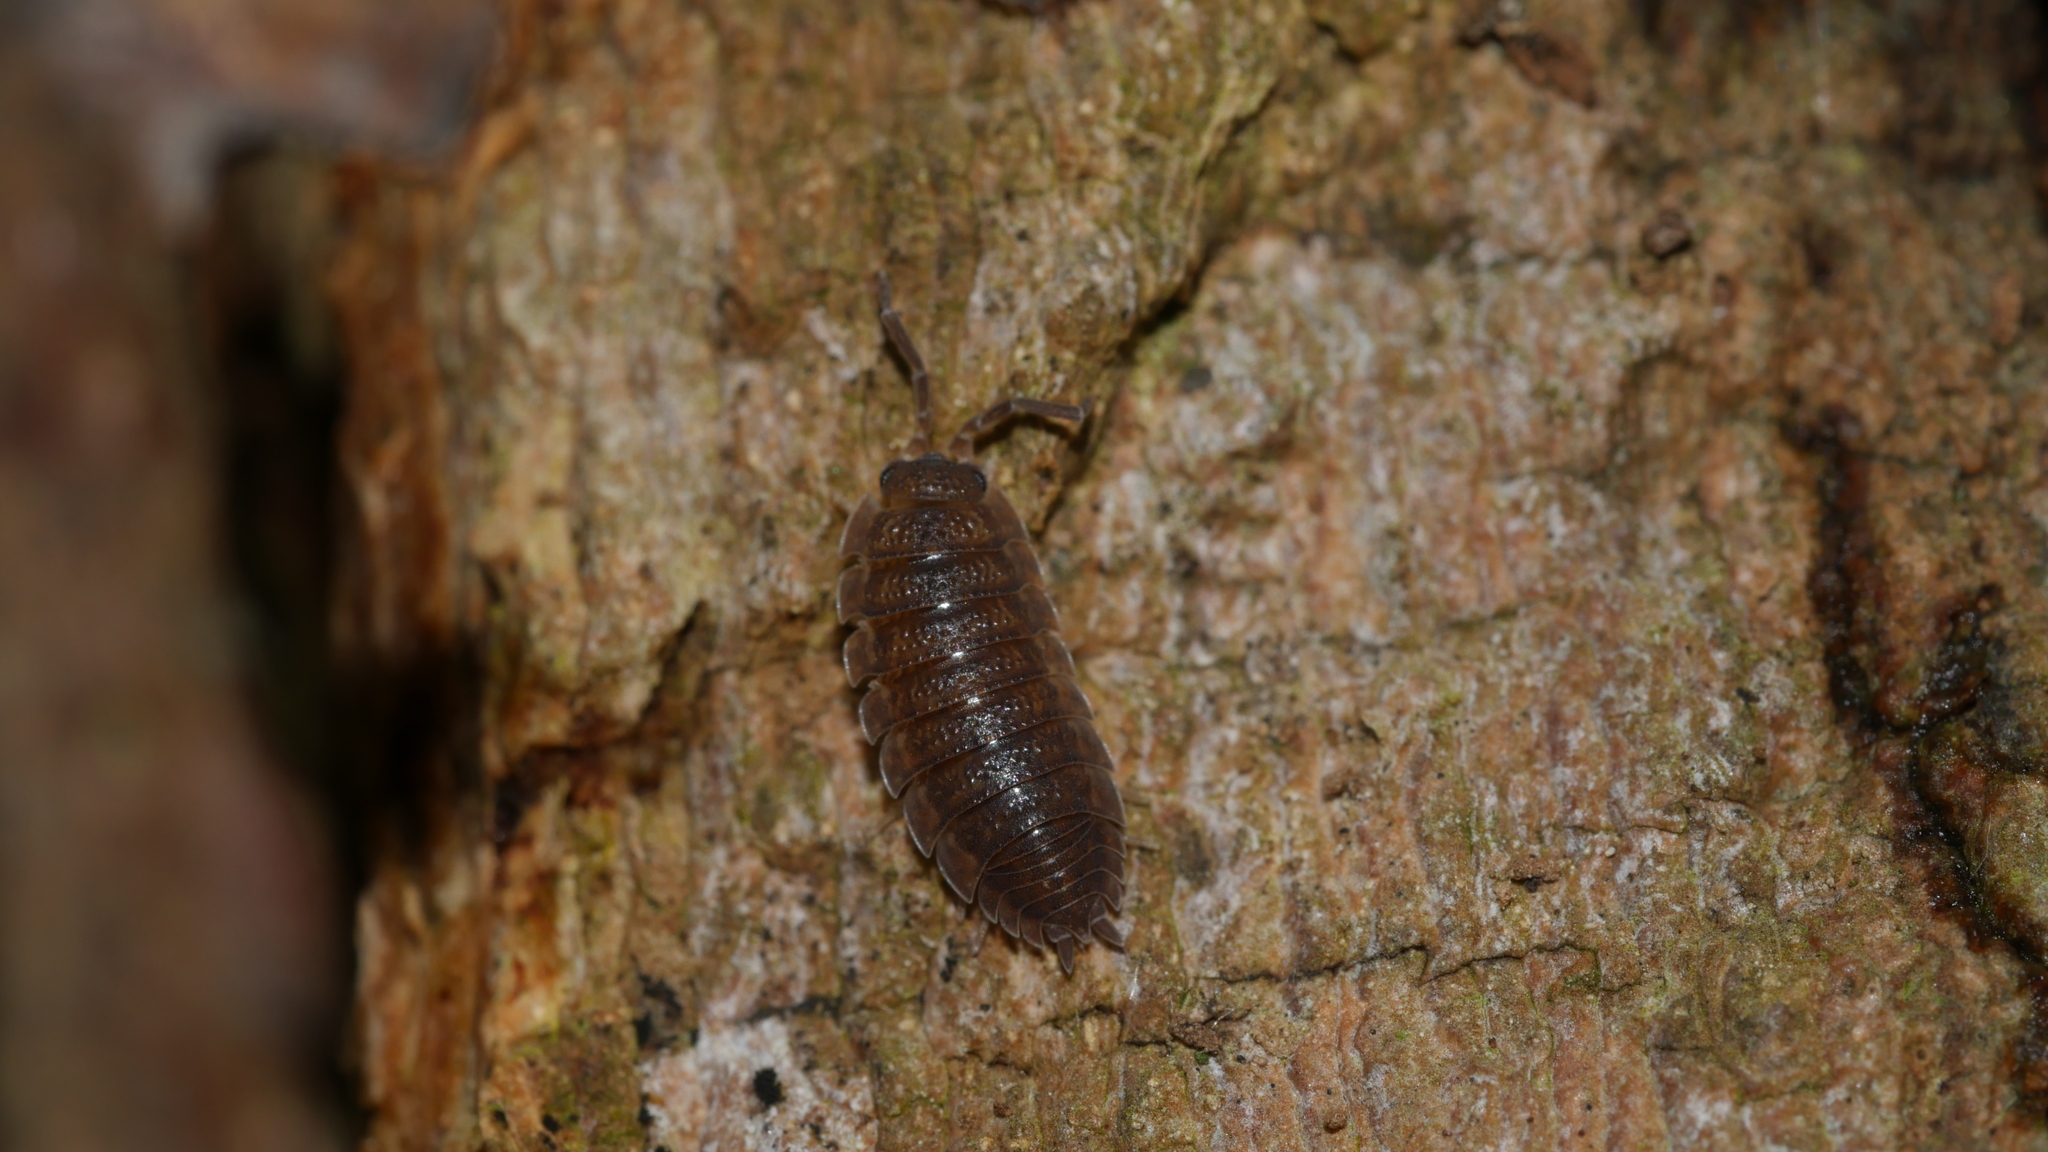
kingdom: Animalia
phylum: Arthropoda
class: Malacostraca
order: Isopoda
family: Porcellionidae
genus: Porcellio
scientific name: Porcellio scaber
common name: Common rough woodlouse
